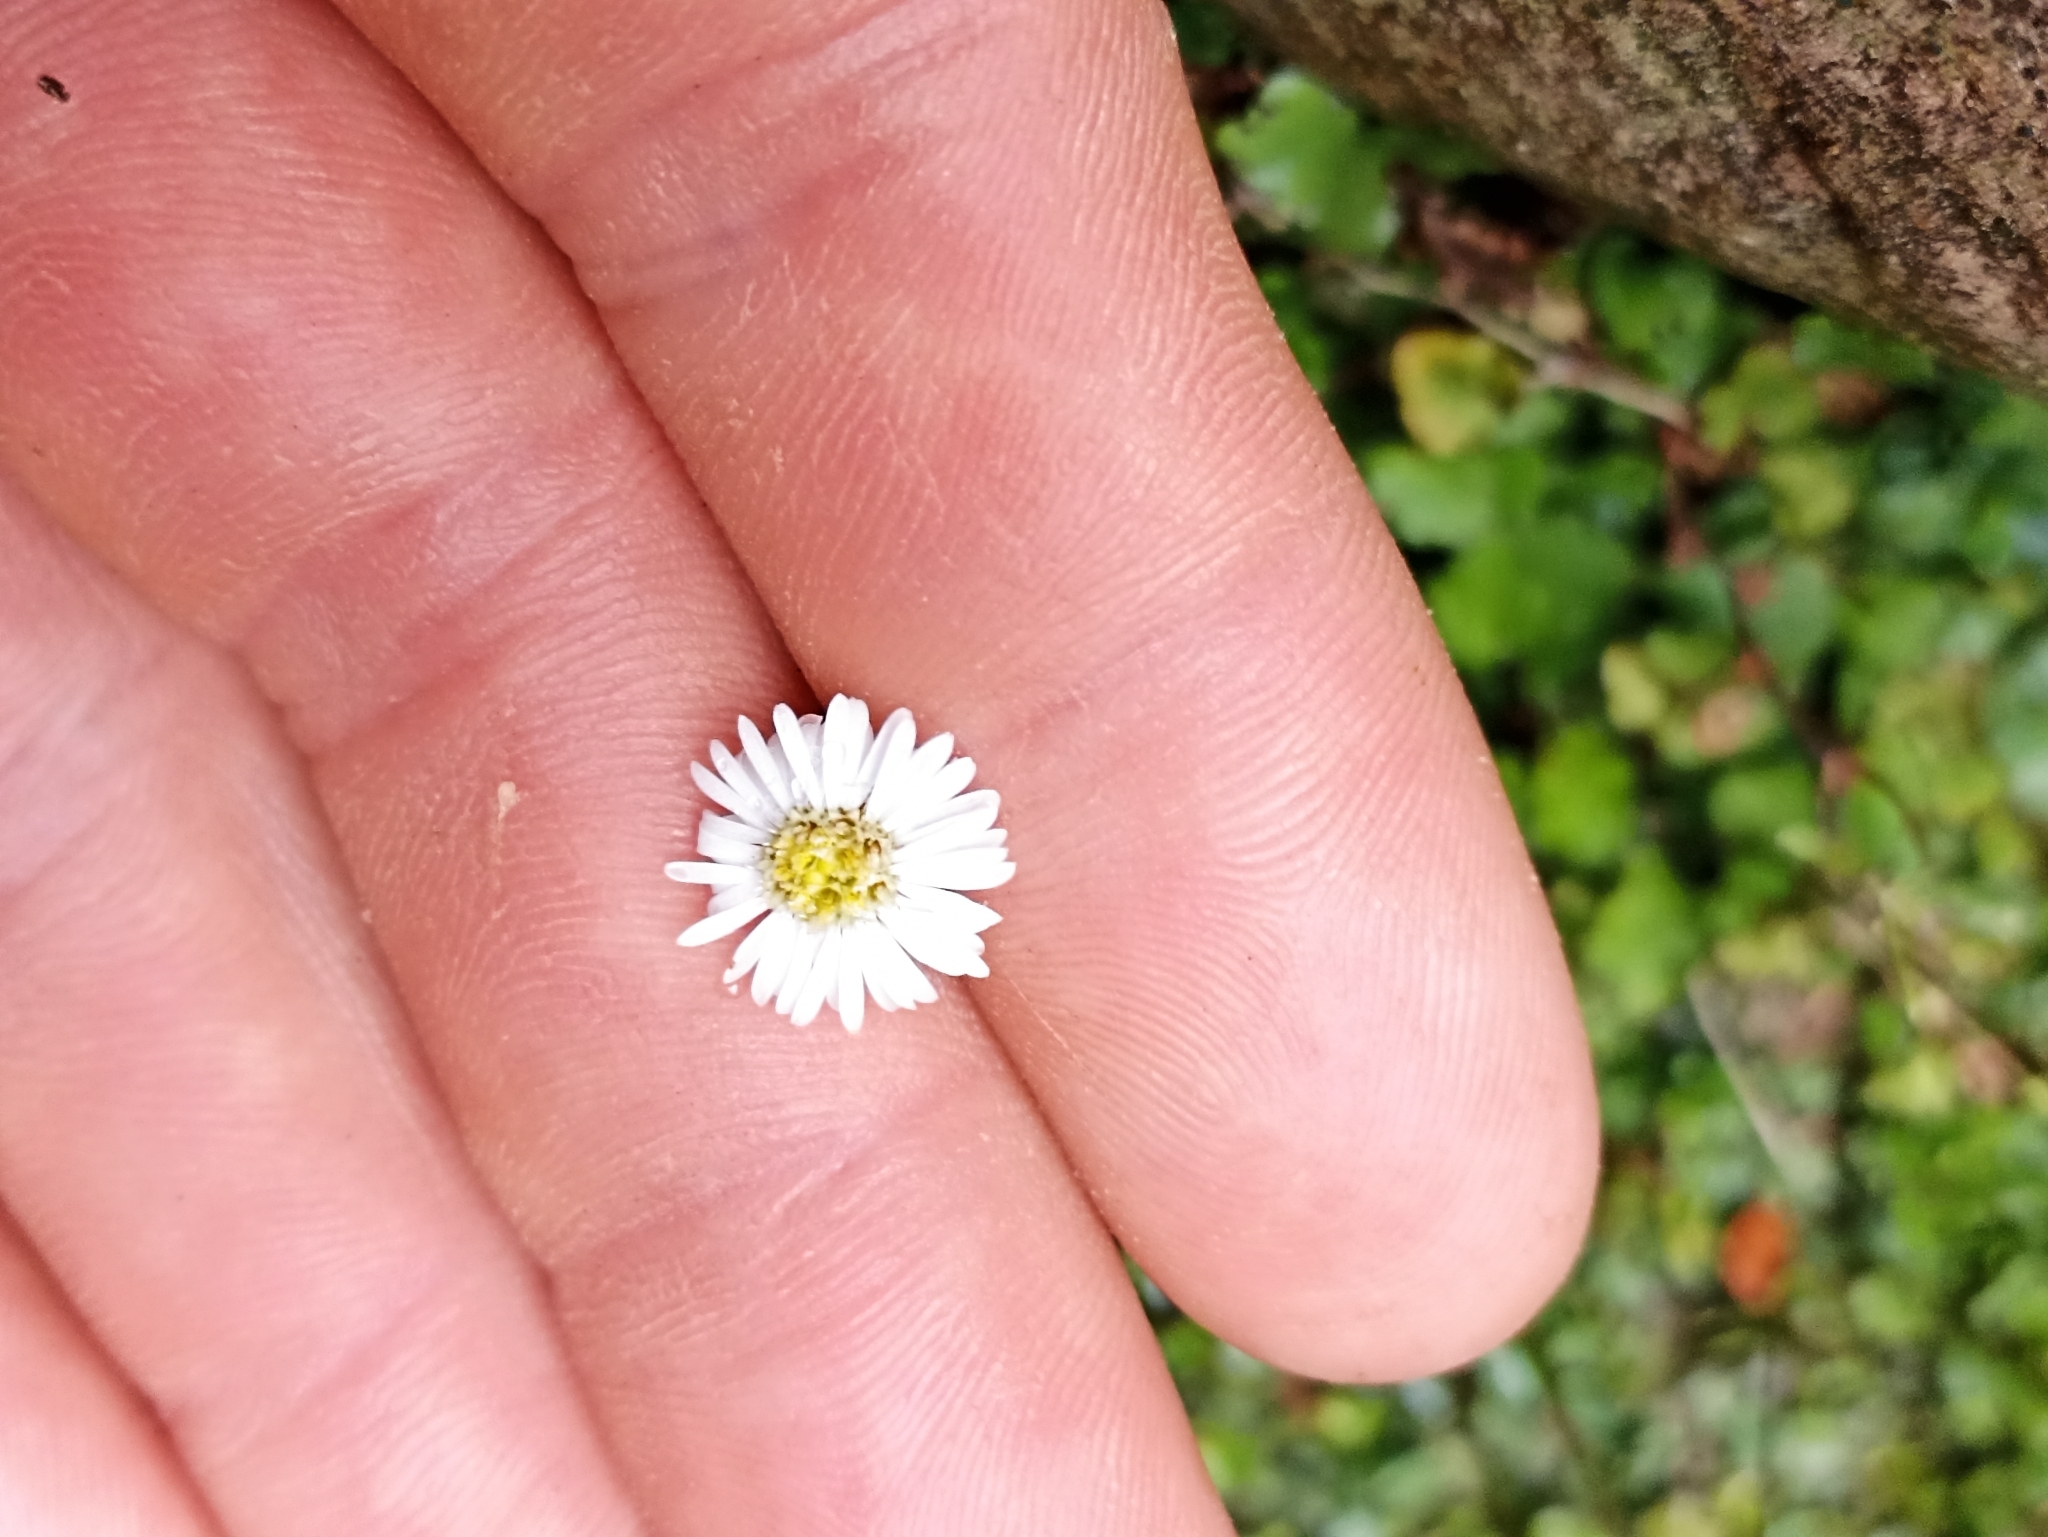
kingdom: Plantae
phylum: Tracheophyta
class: Magnoliopsida
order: Asterales
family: Asteraceae
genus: Lagenophora
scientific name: Lagenophora pumila
